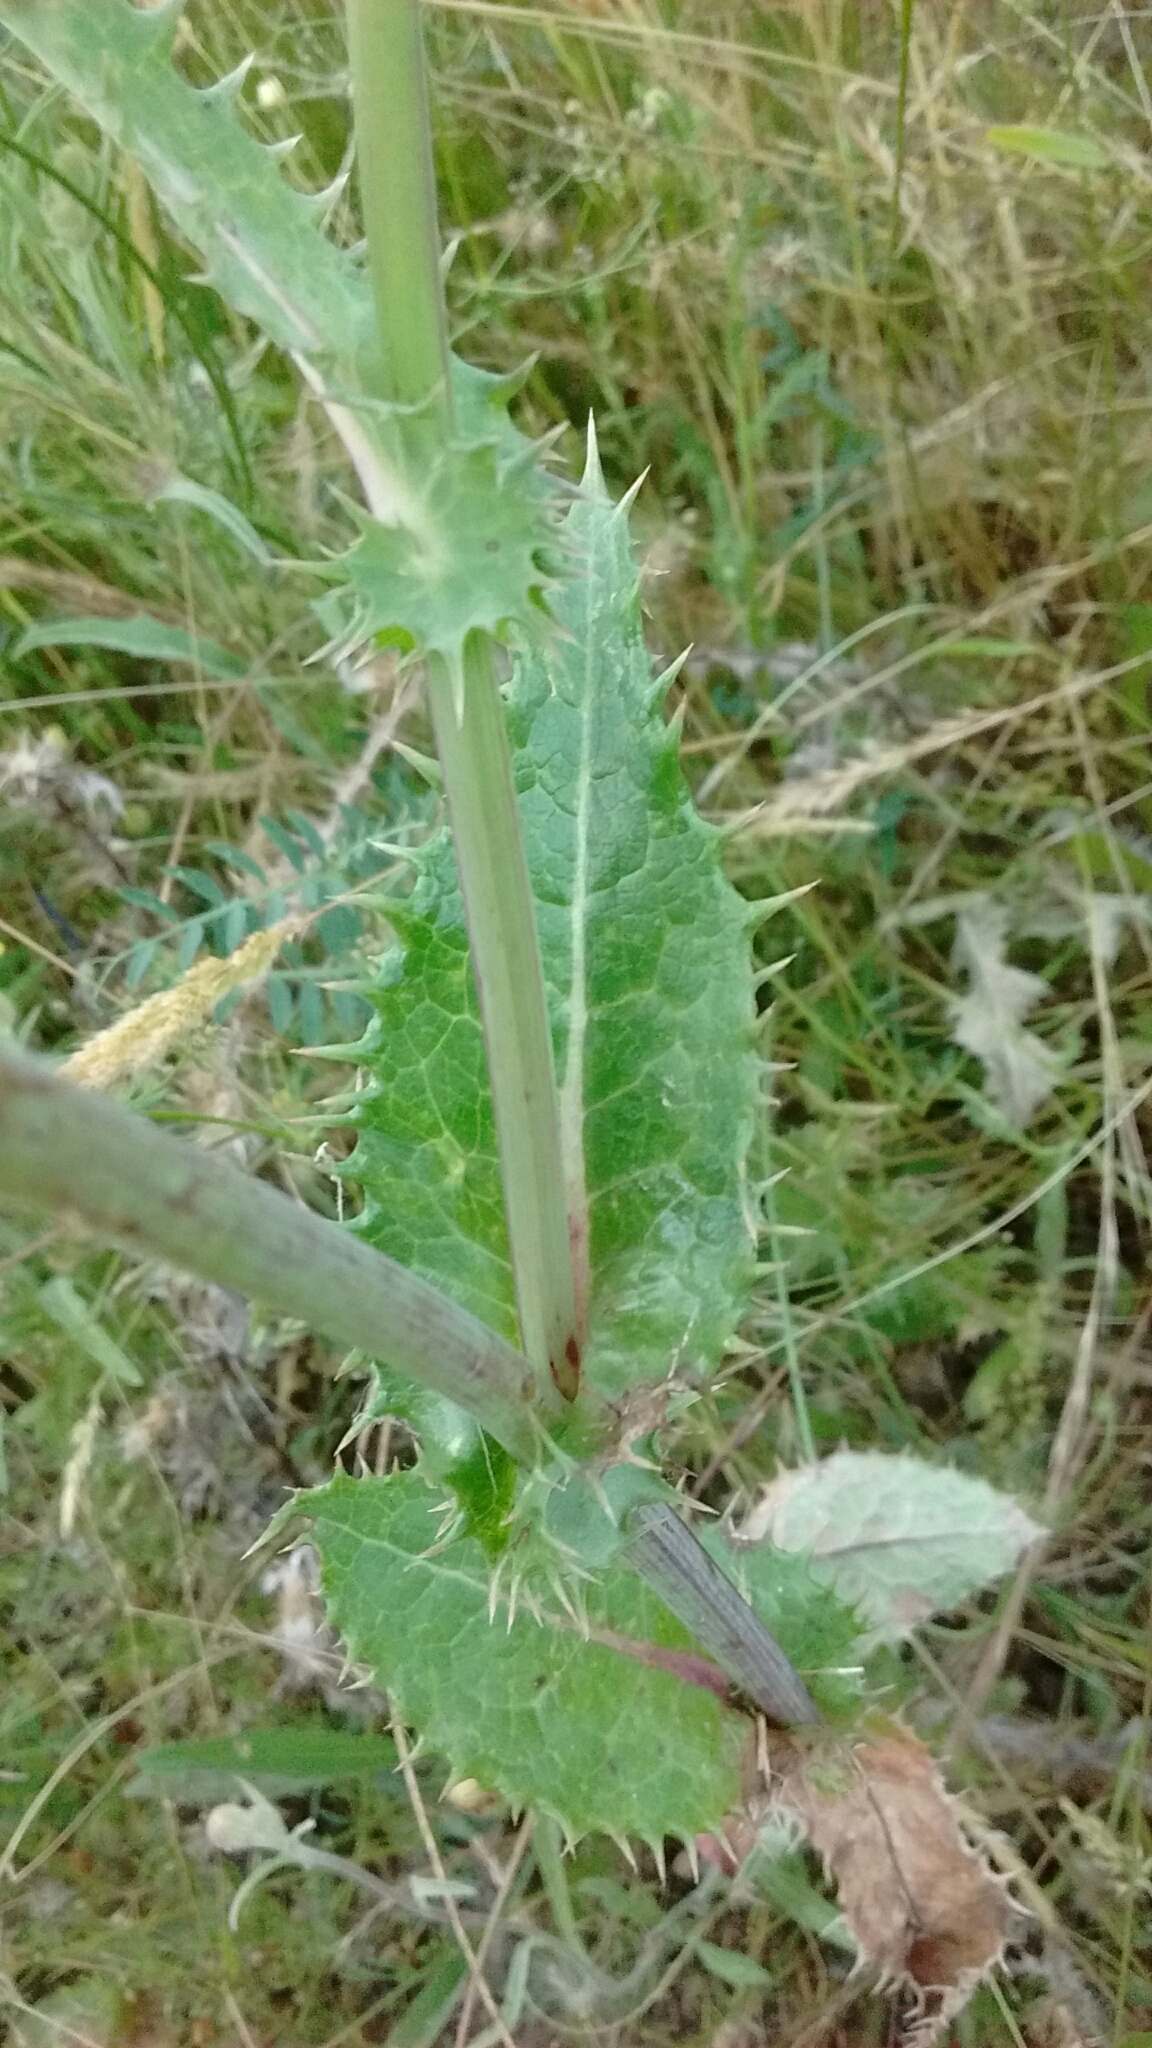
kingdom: Plantae
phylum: Tracheophyta
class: Magnoliopsida
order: Asterales
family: Asteraceae
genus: Sonchus
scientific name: Sonchus asper
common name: Prickly sow-thistle
